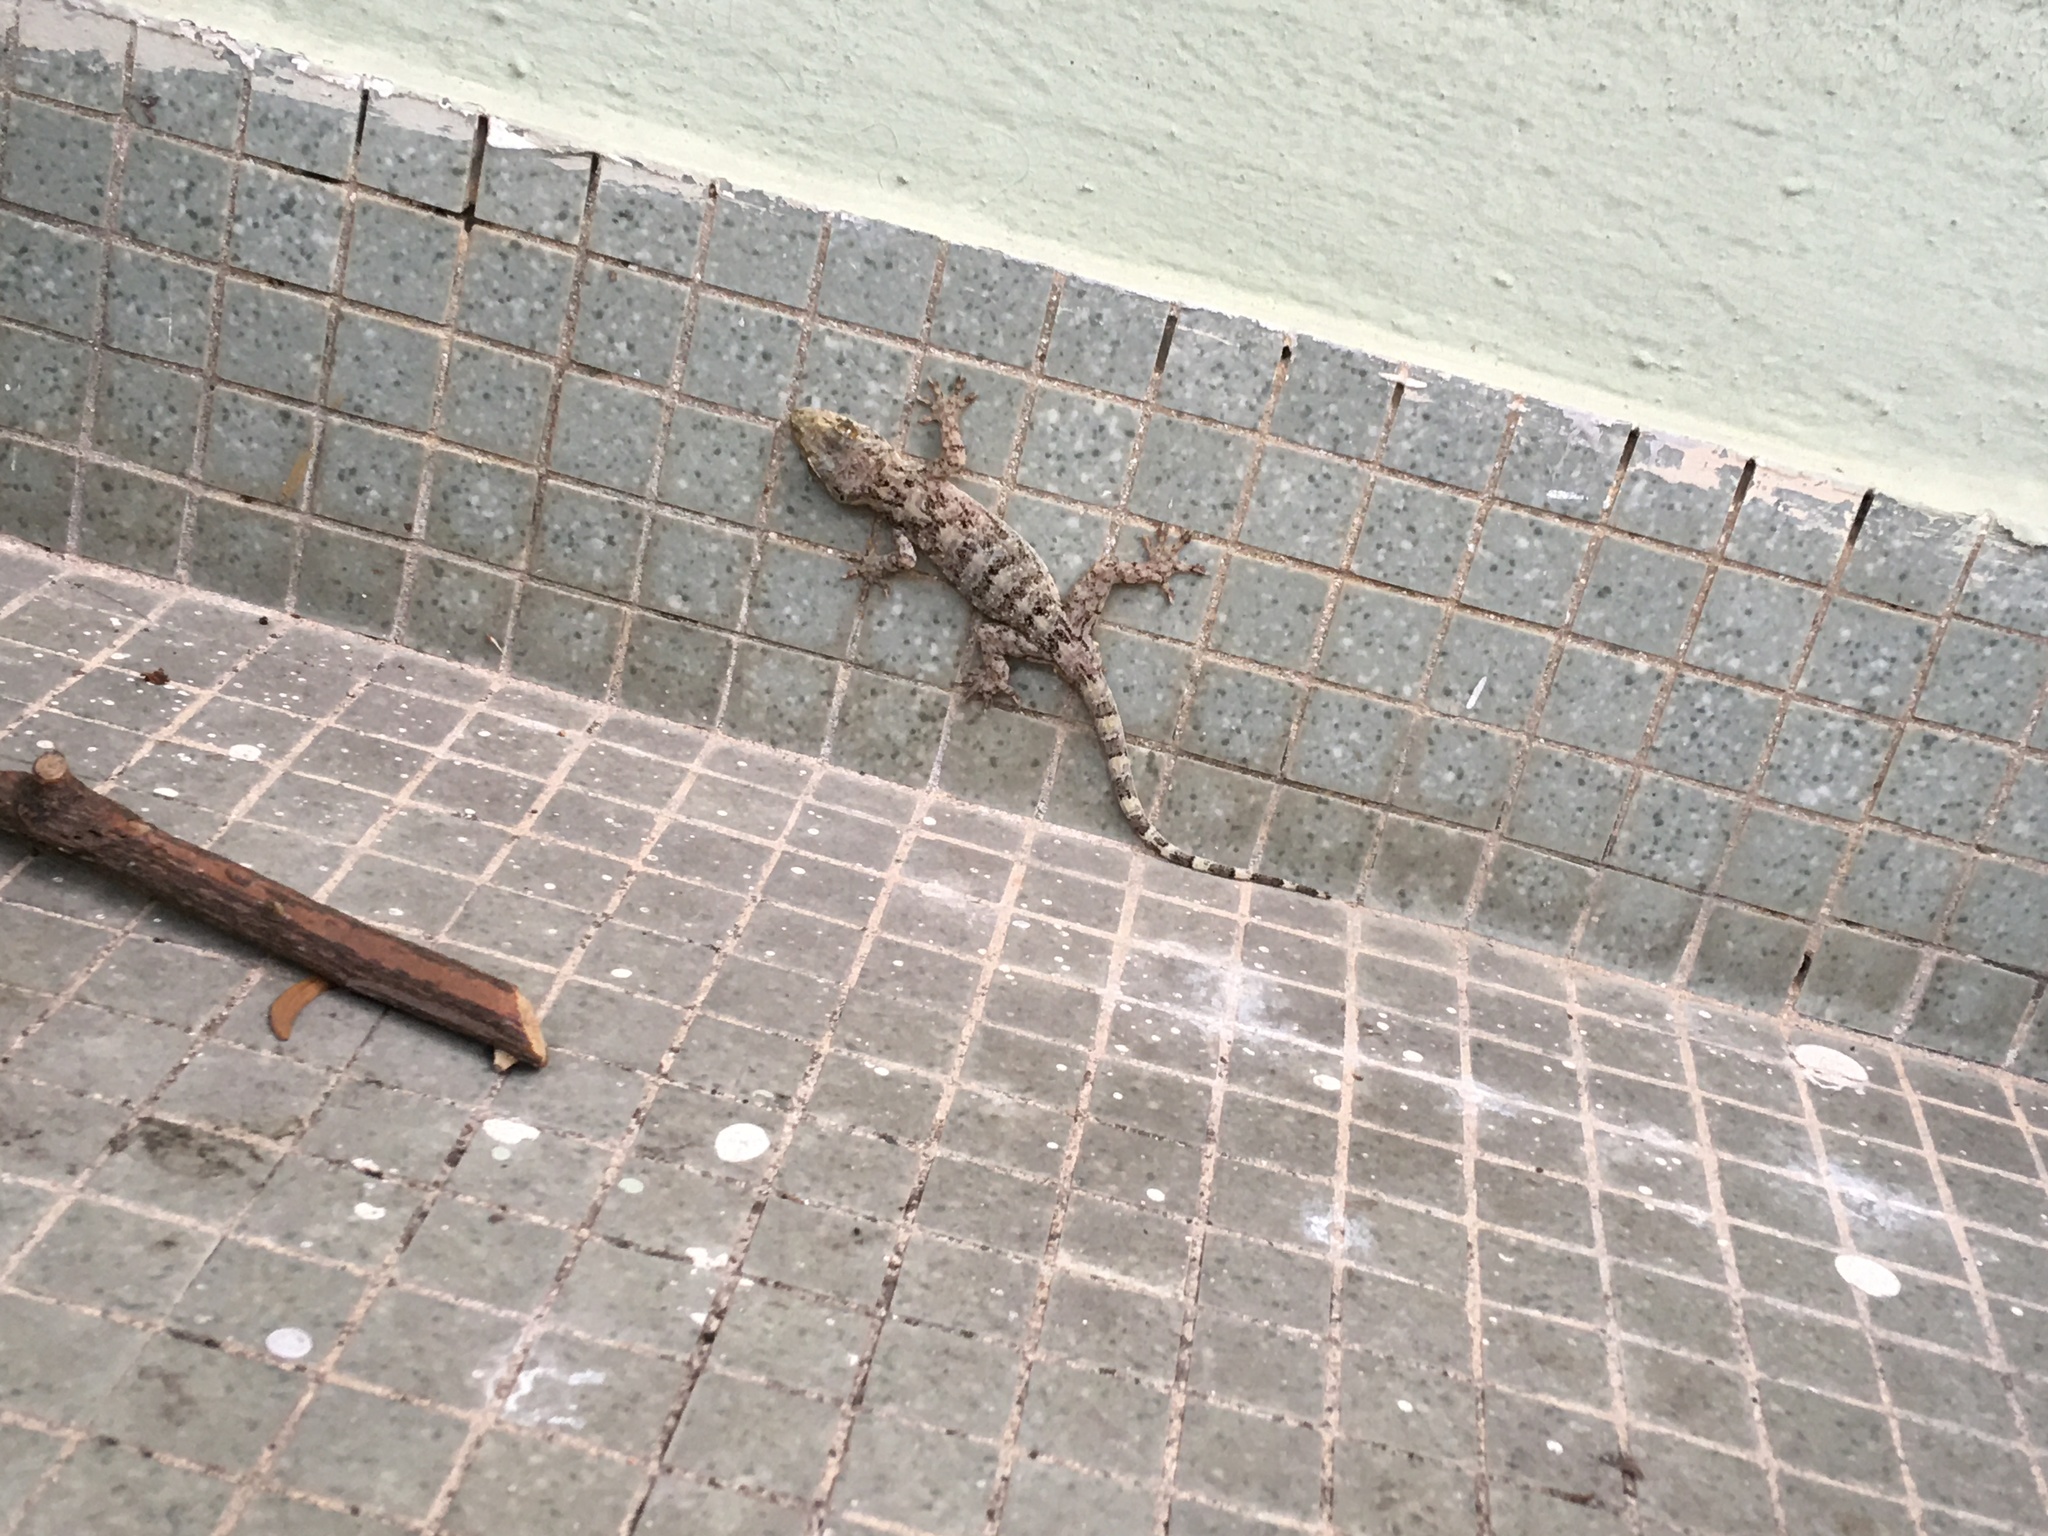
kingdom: Animalia
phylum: Chordata
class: Squamata
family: Gekkonidae
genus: Gekko
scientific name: Gekko chinensis
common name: Gray's chinese gecko
